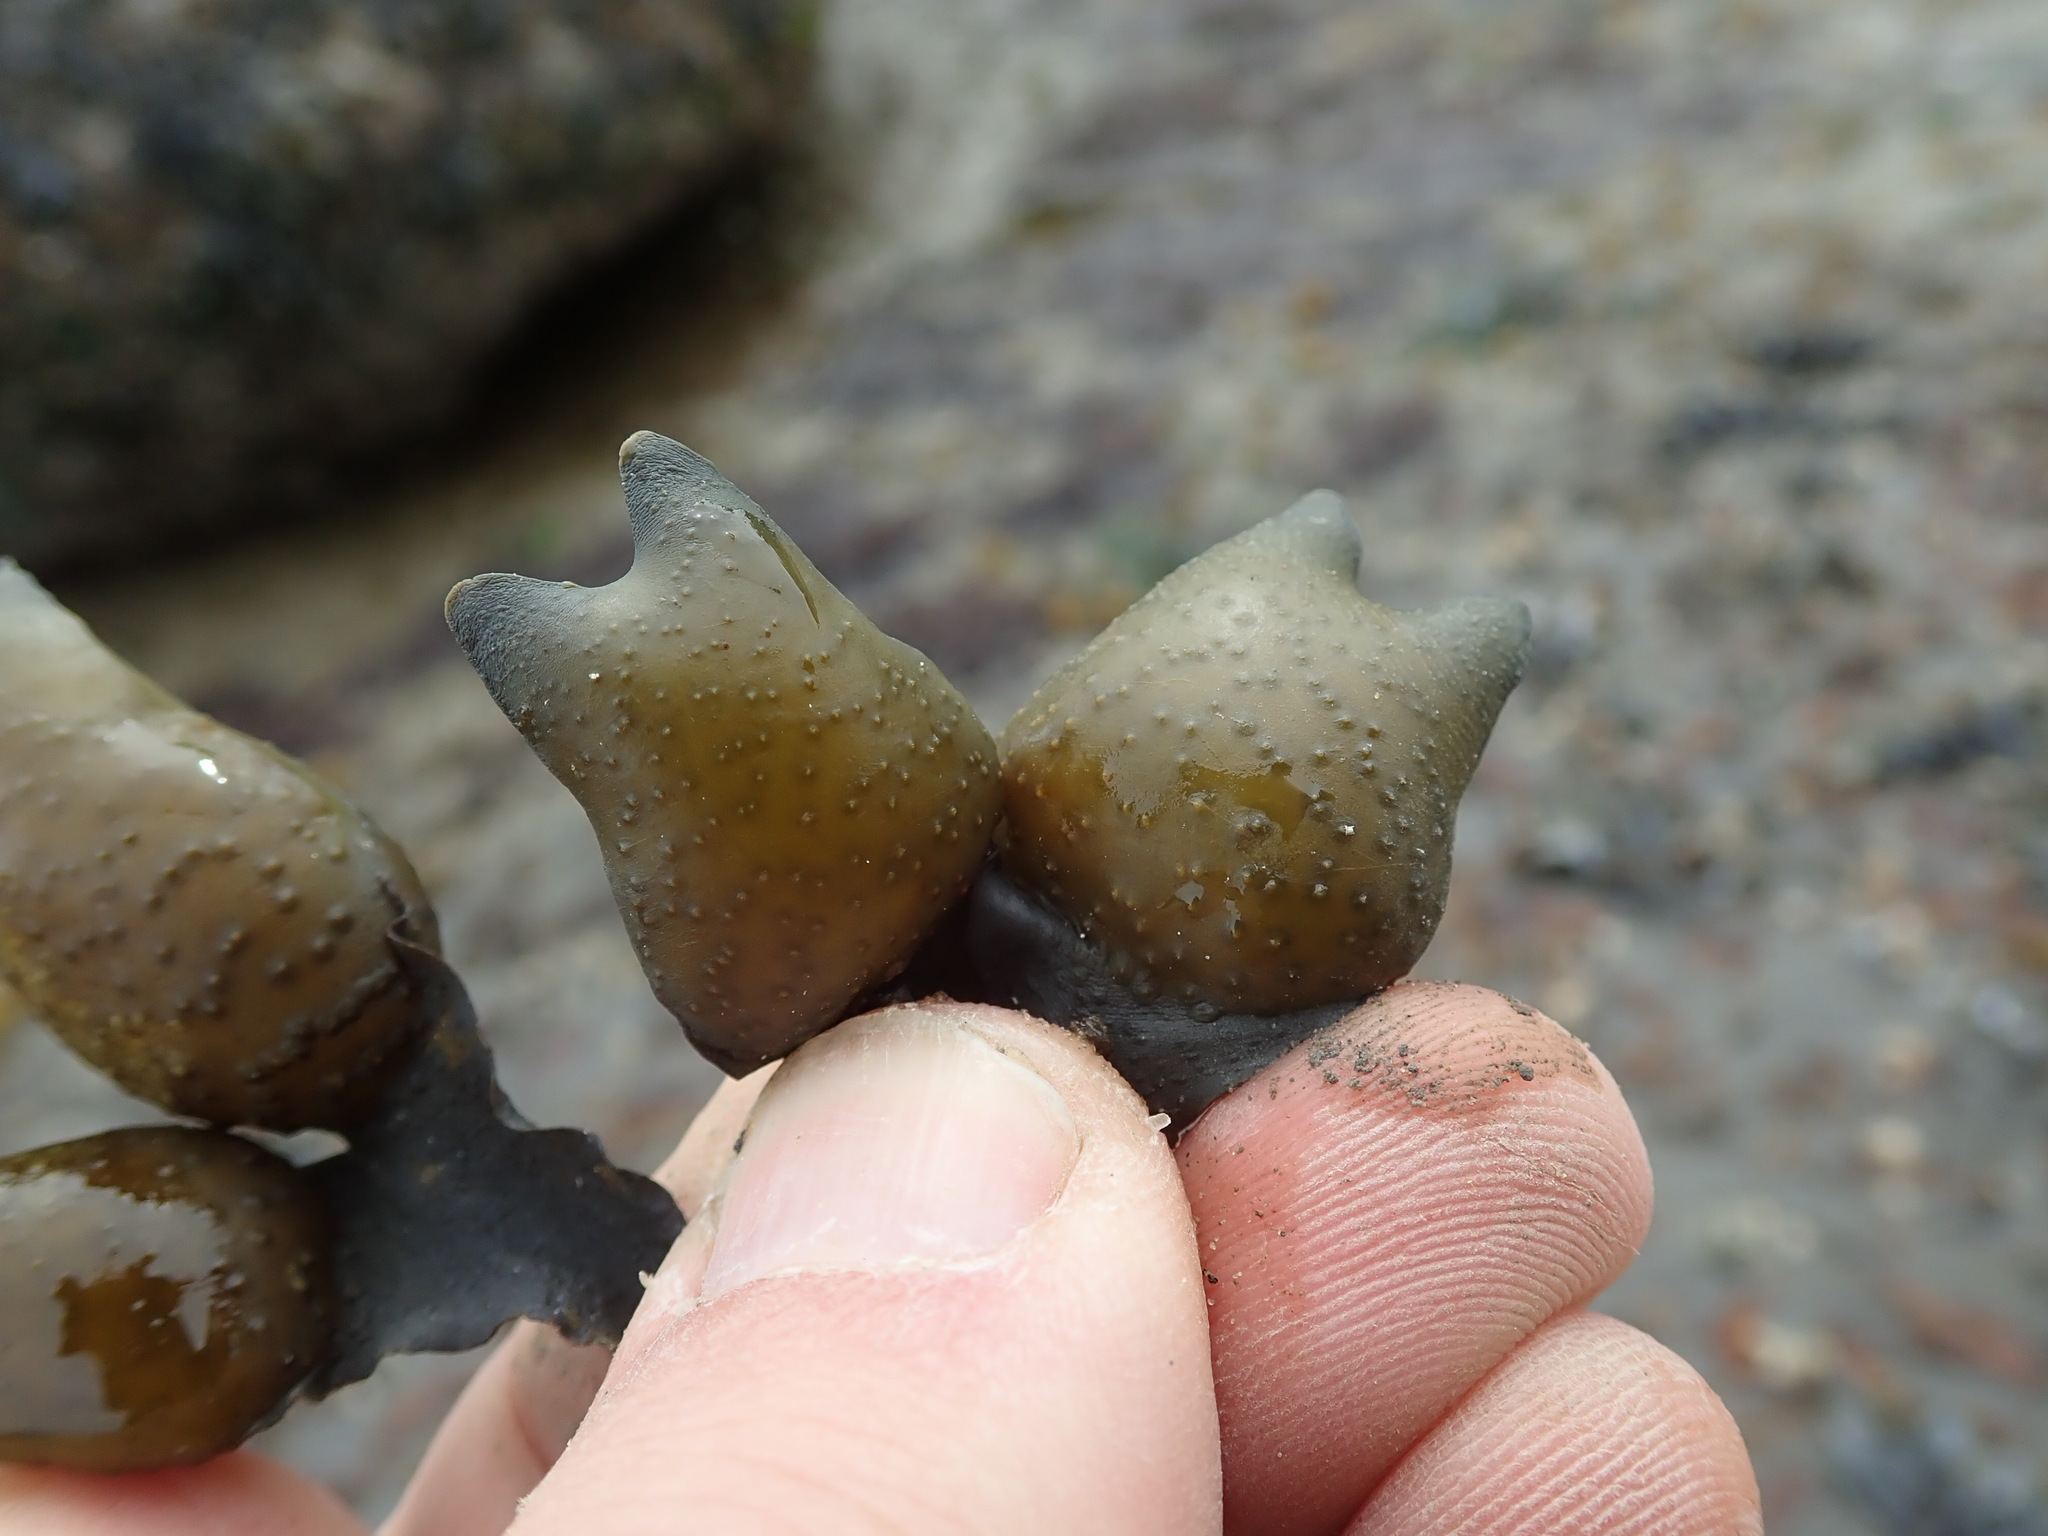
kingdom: Chromista
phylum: Ochrophyta
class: Phaeophyceae
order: Fucales
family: Fucaceae
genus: Fucus
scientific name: Fucus distichus
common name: Rockweed
